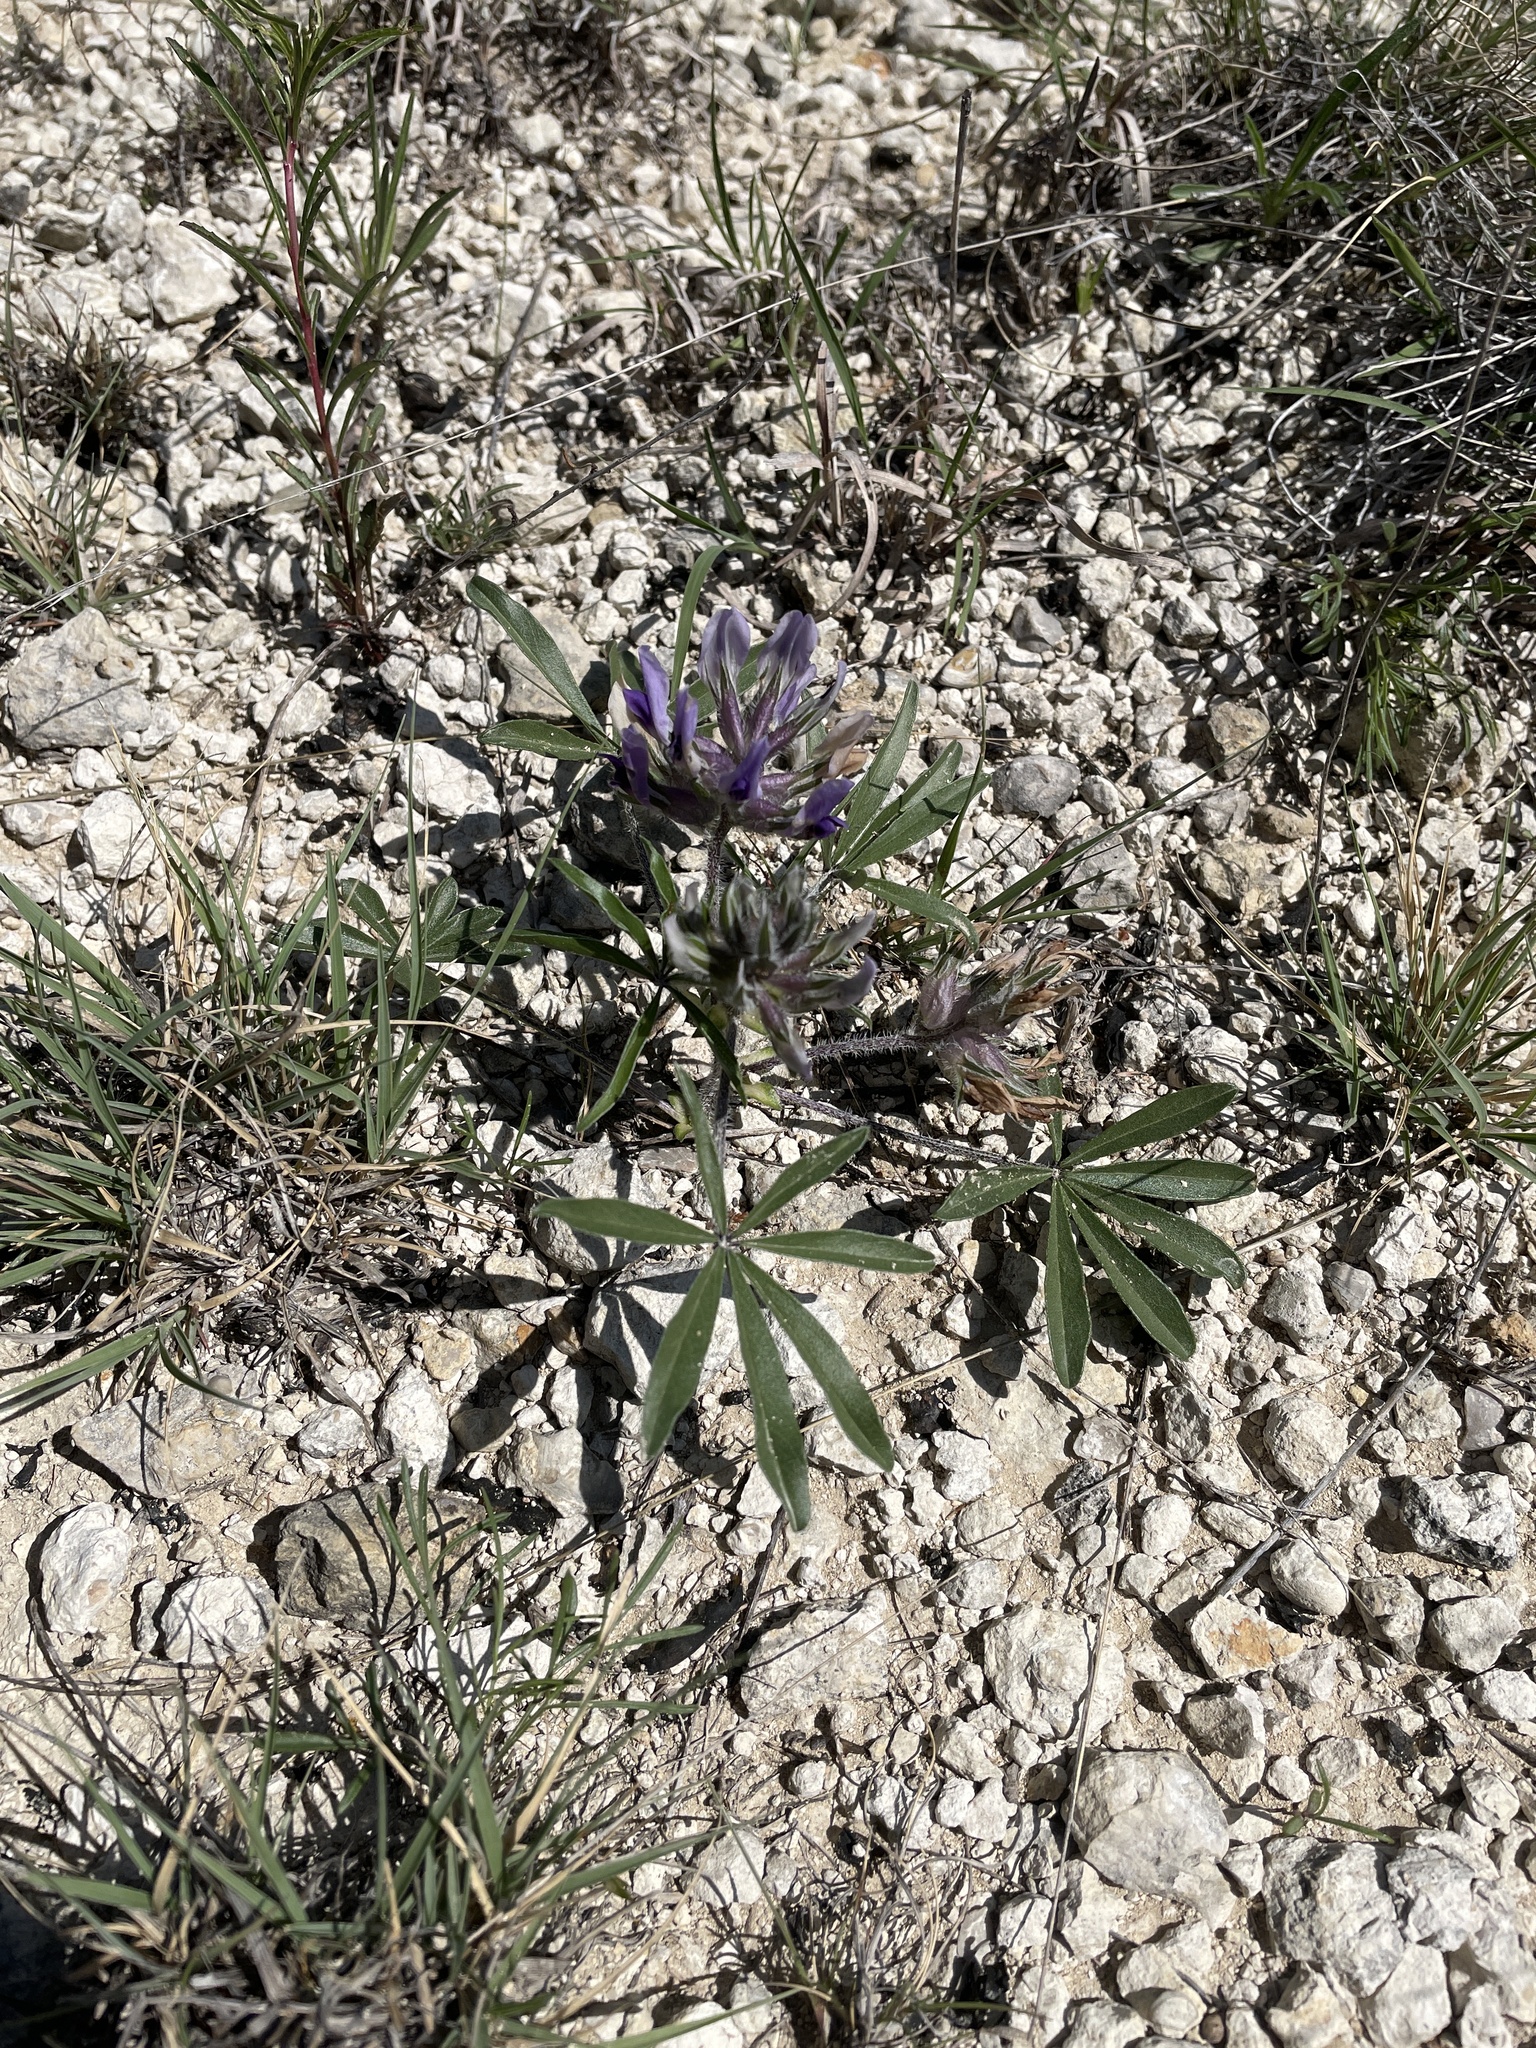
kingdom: Plantae
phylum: Tracheophyta
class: Magnoliopsida
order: Fabales
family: Fabaceae
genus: Pediomelum
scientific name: Pediomelum latestipulatum
